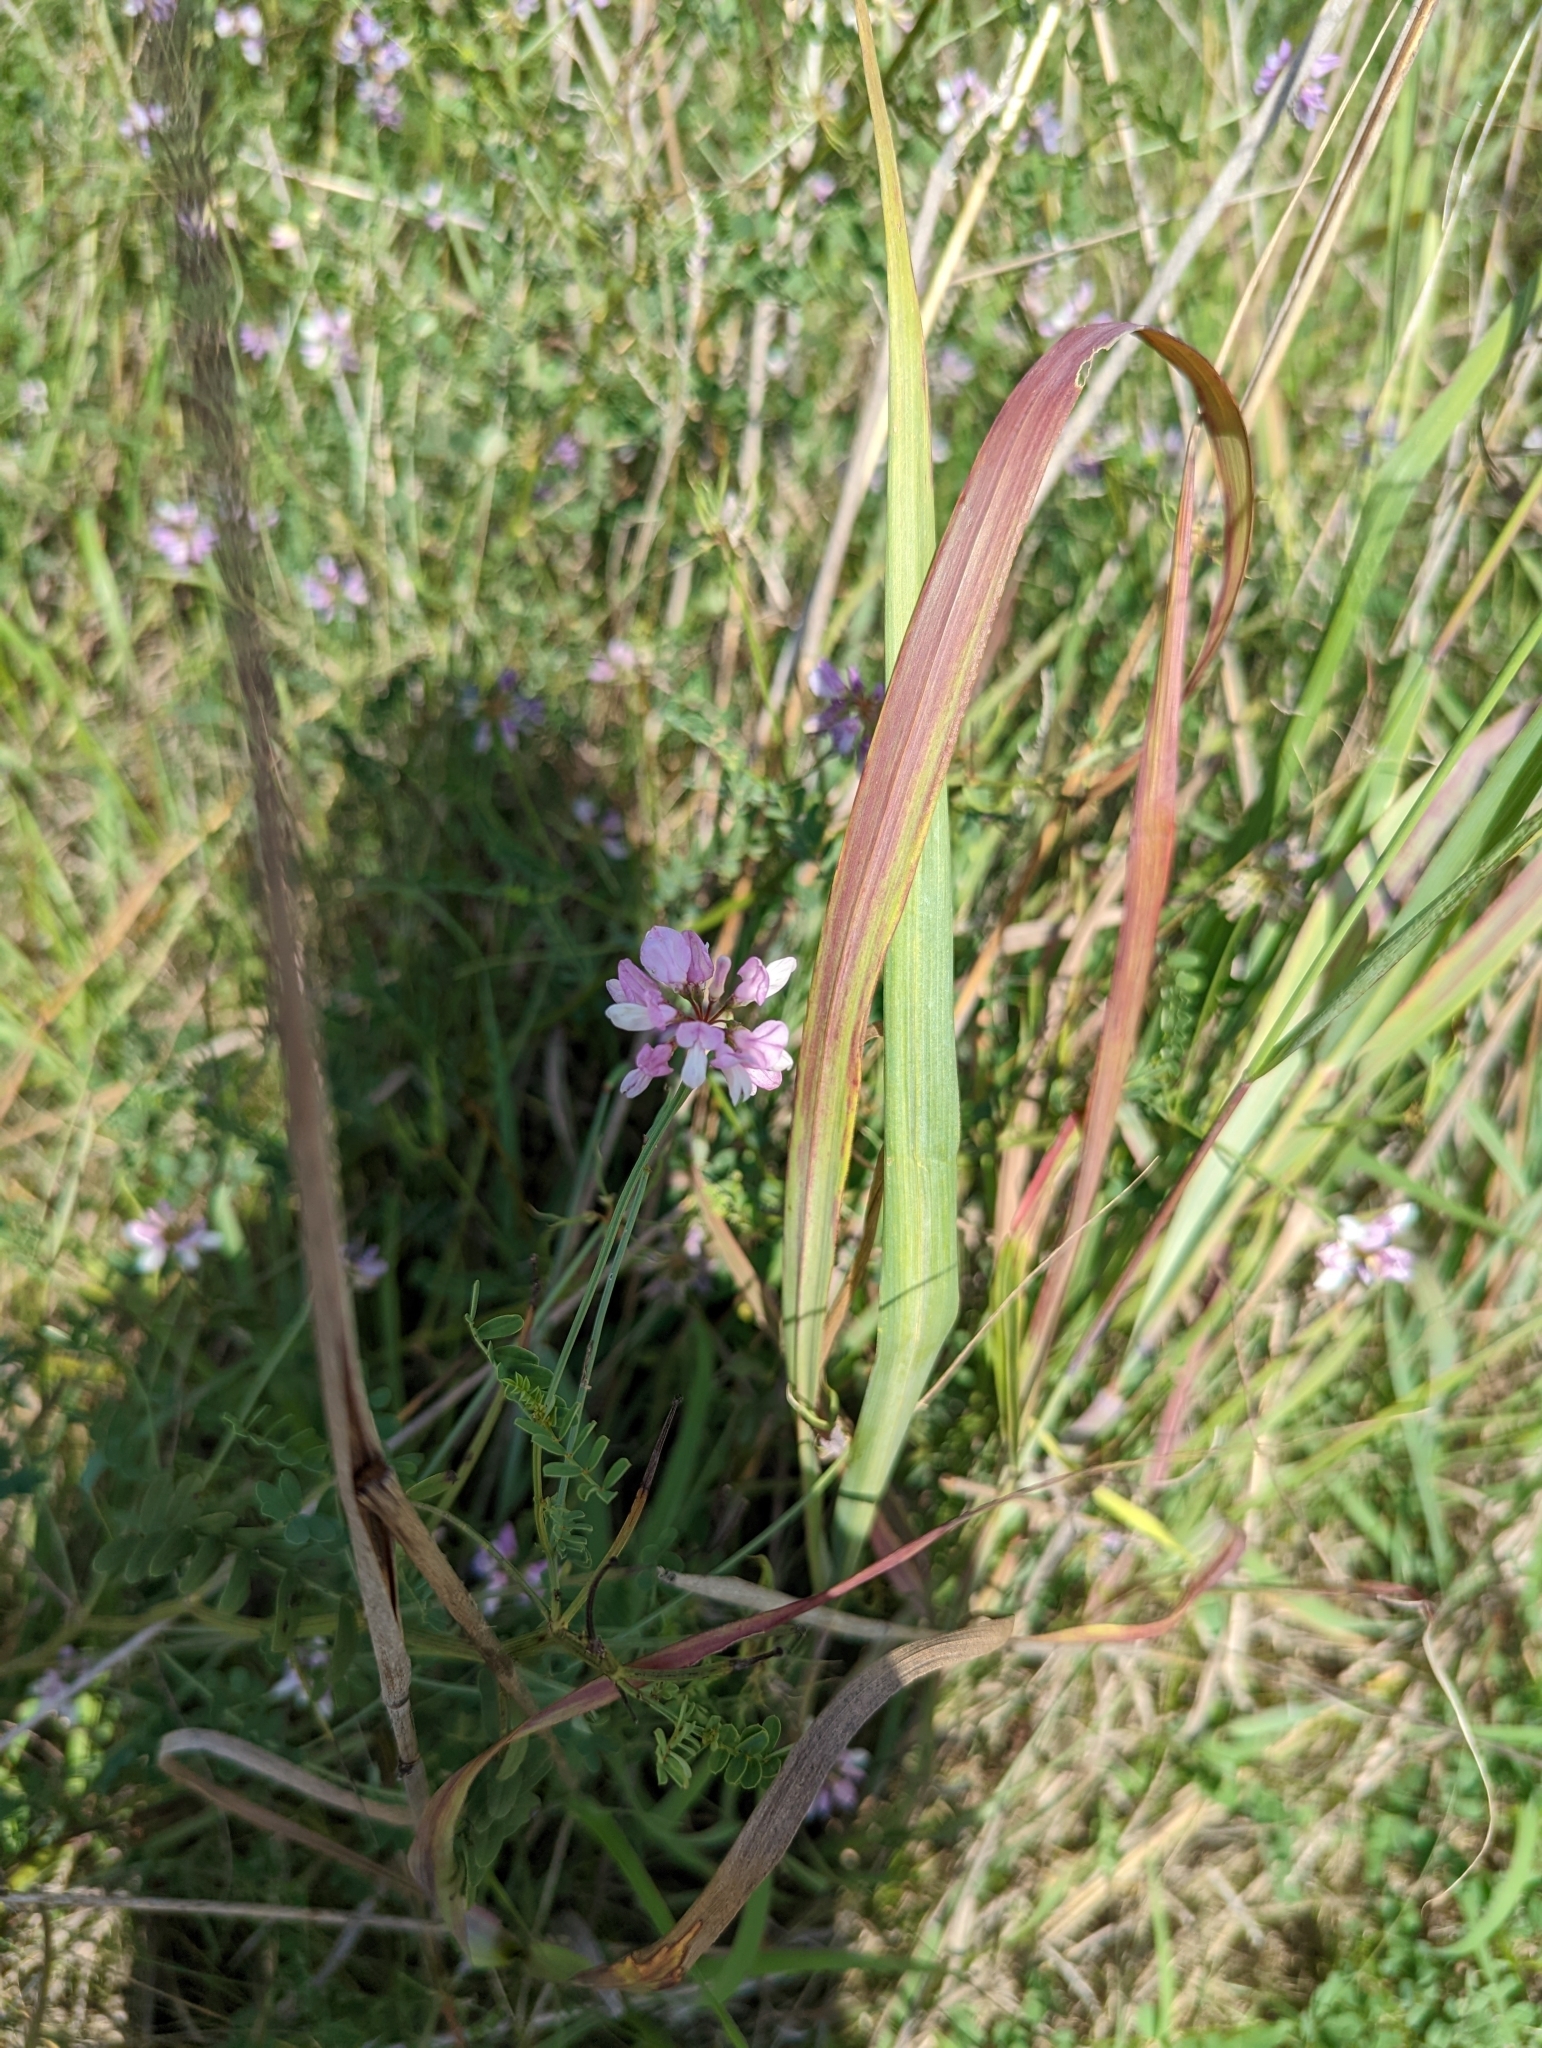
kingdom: Plantae
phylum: Tracheophyta
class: Magnoliopsida
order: Fabales
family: Fabaceae
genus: Coronilla
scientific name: Coronilla varia
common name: Crownvetch
